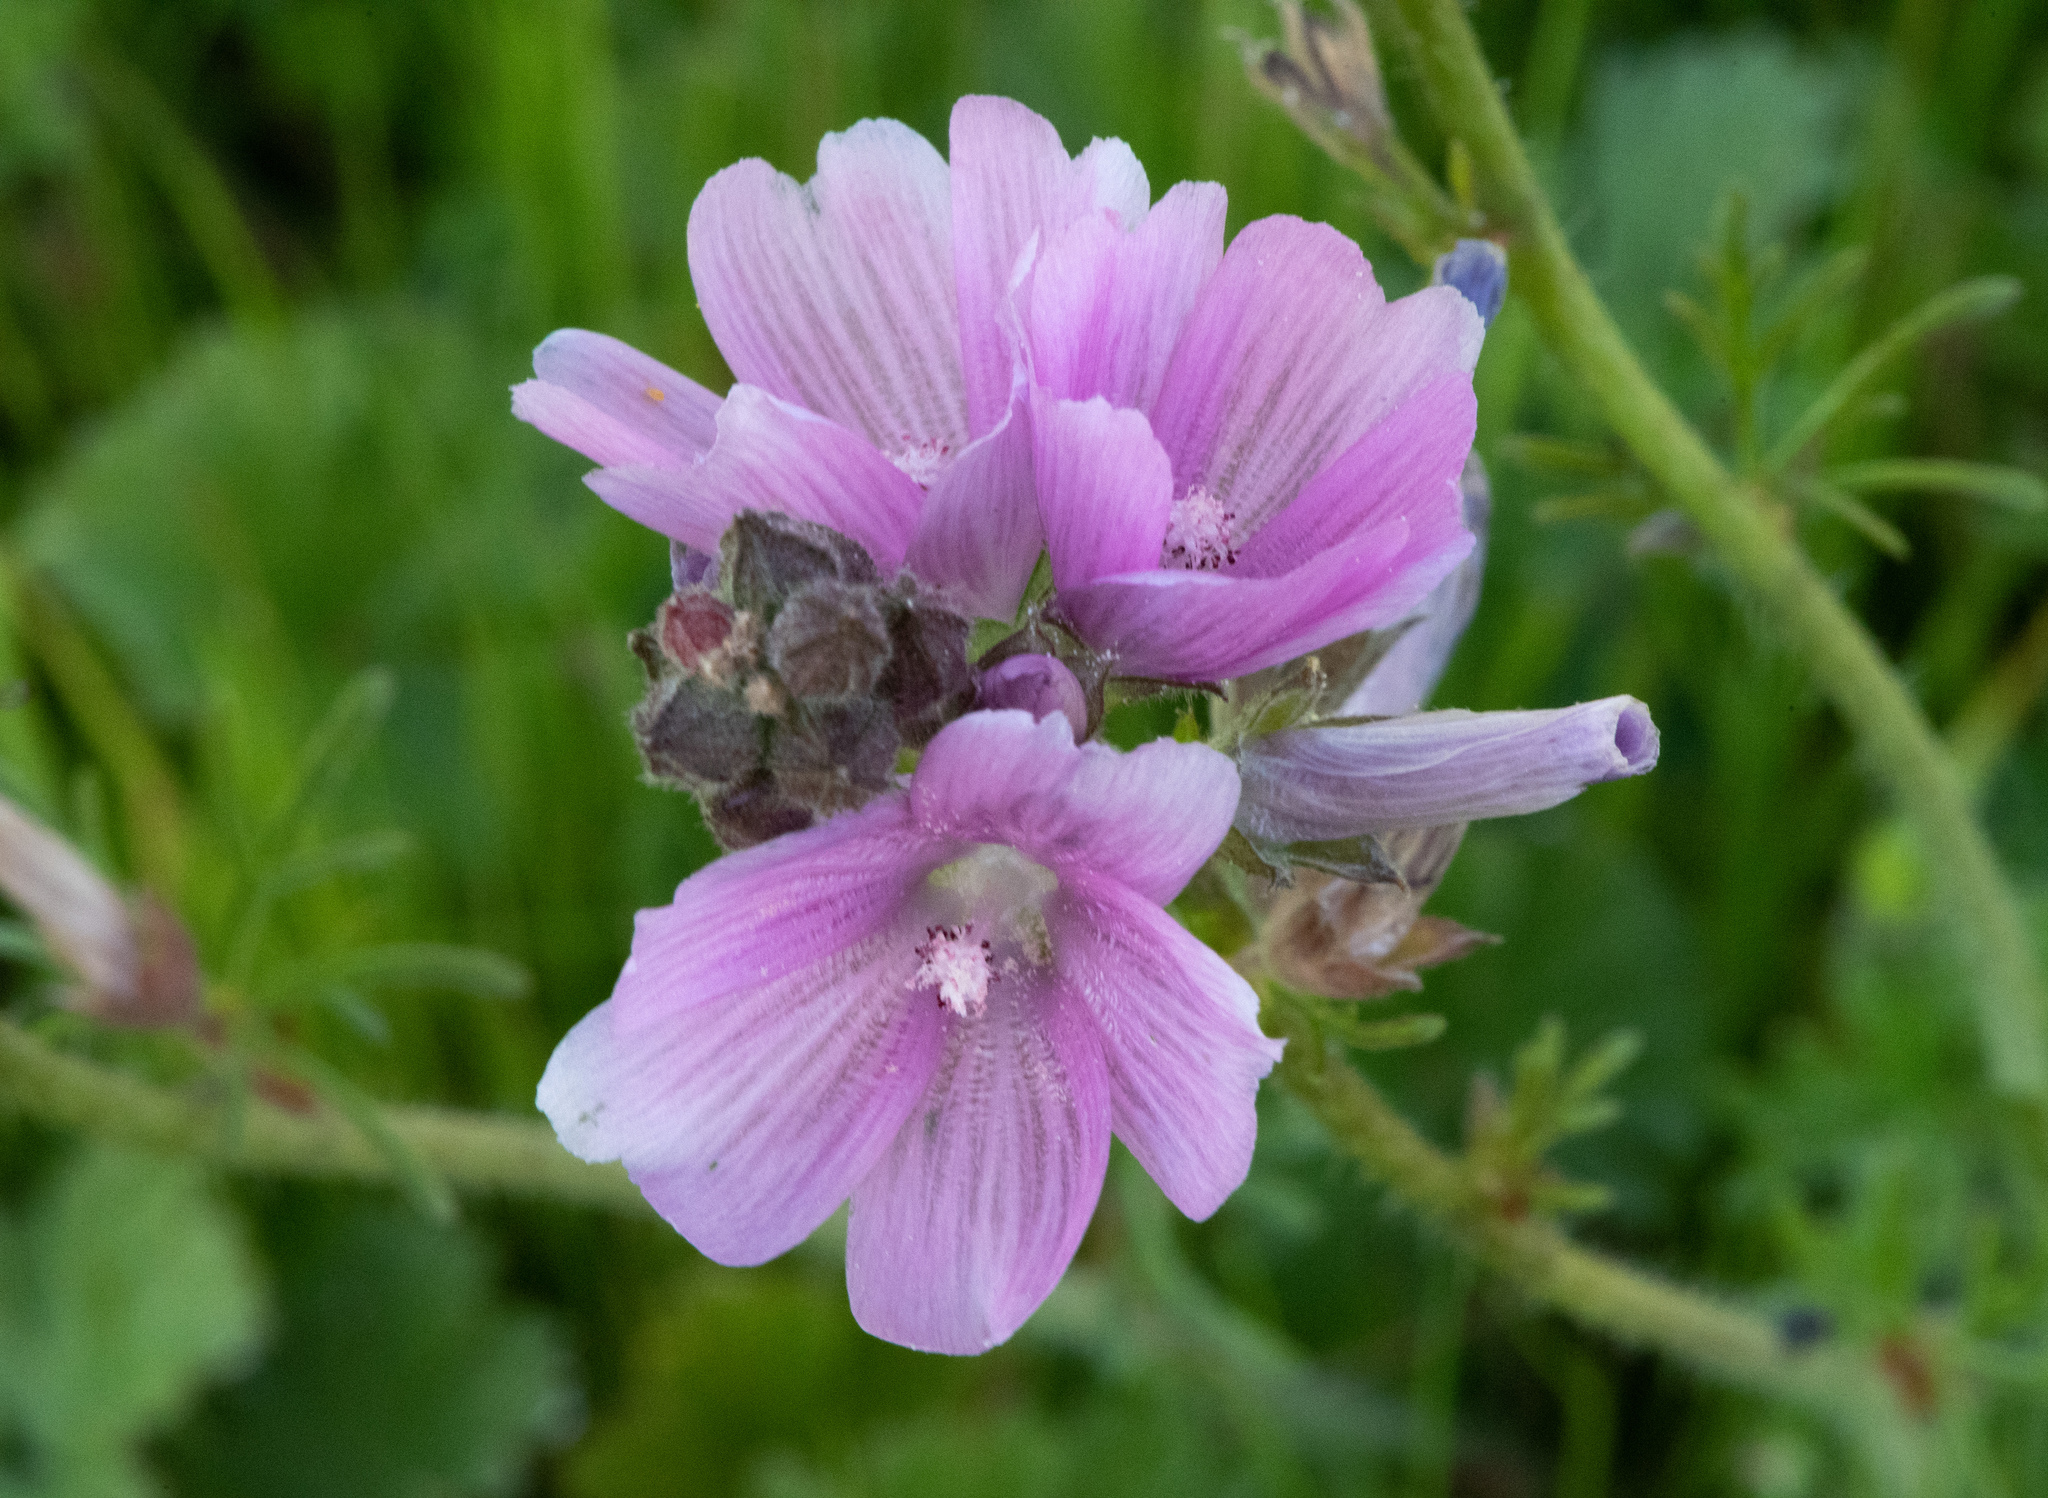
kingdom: Plantae
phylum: Tracheophyta
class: Magnoliopsida
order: Malvales
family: Malvaceae
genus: Sidalcea
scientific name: Sidalcea malviflora
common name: Greek mallow
